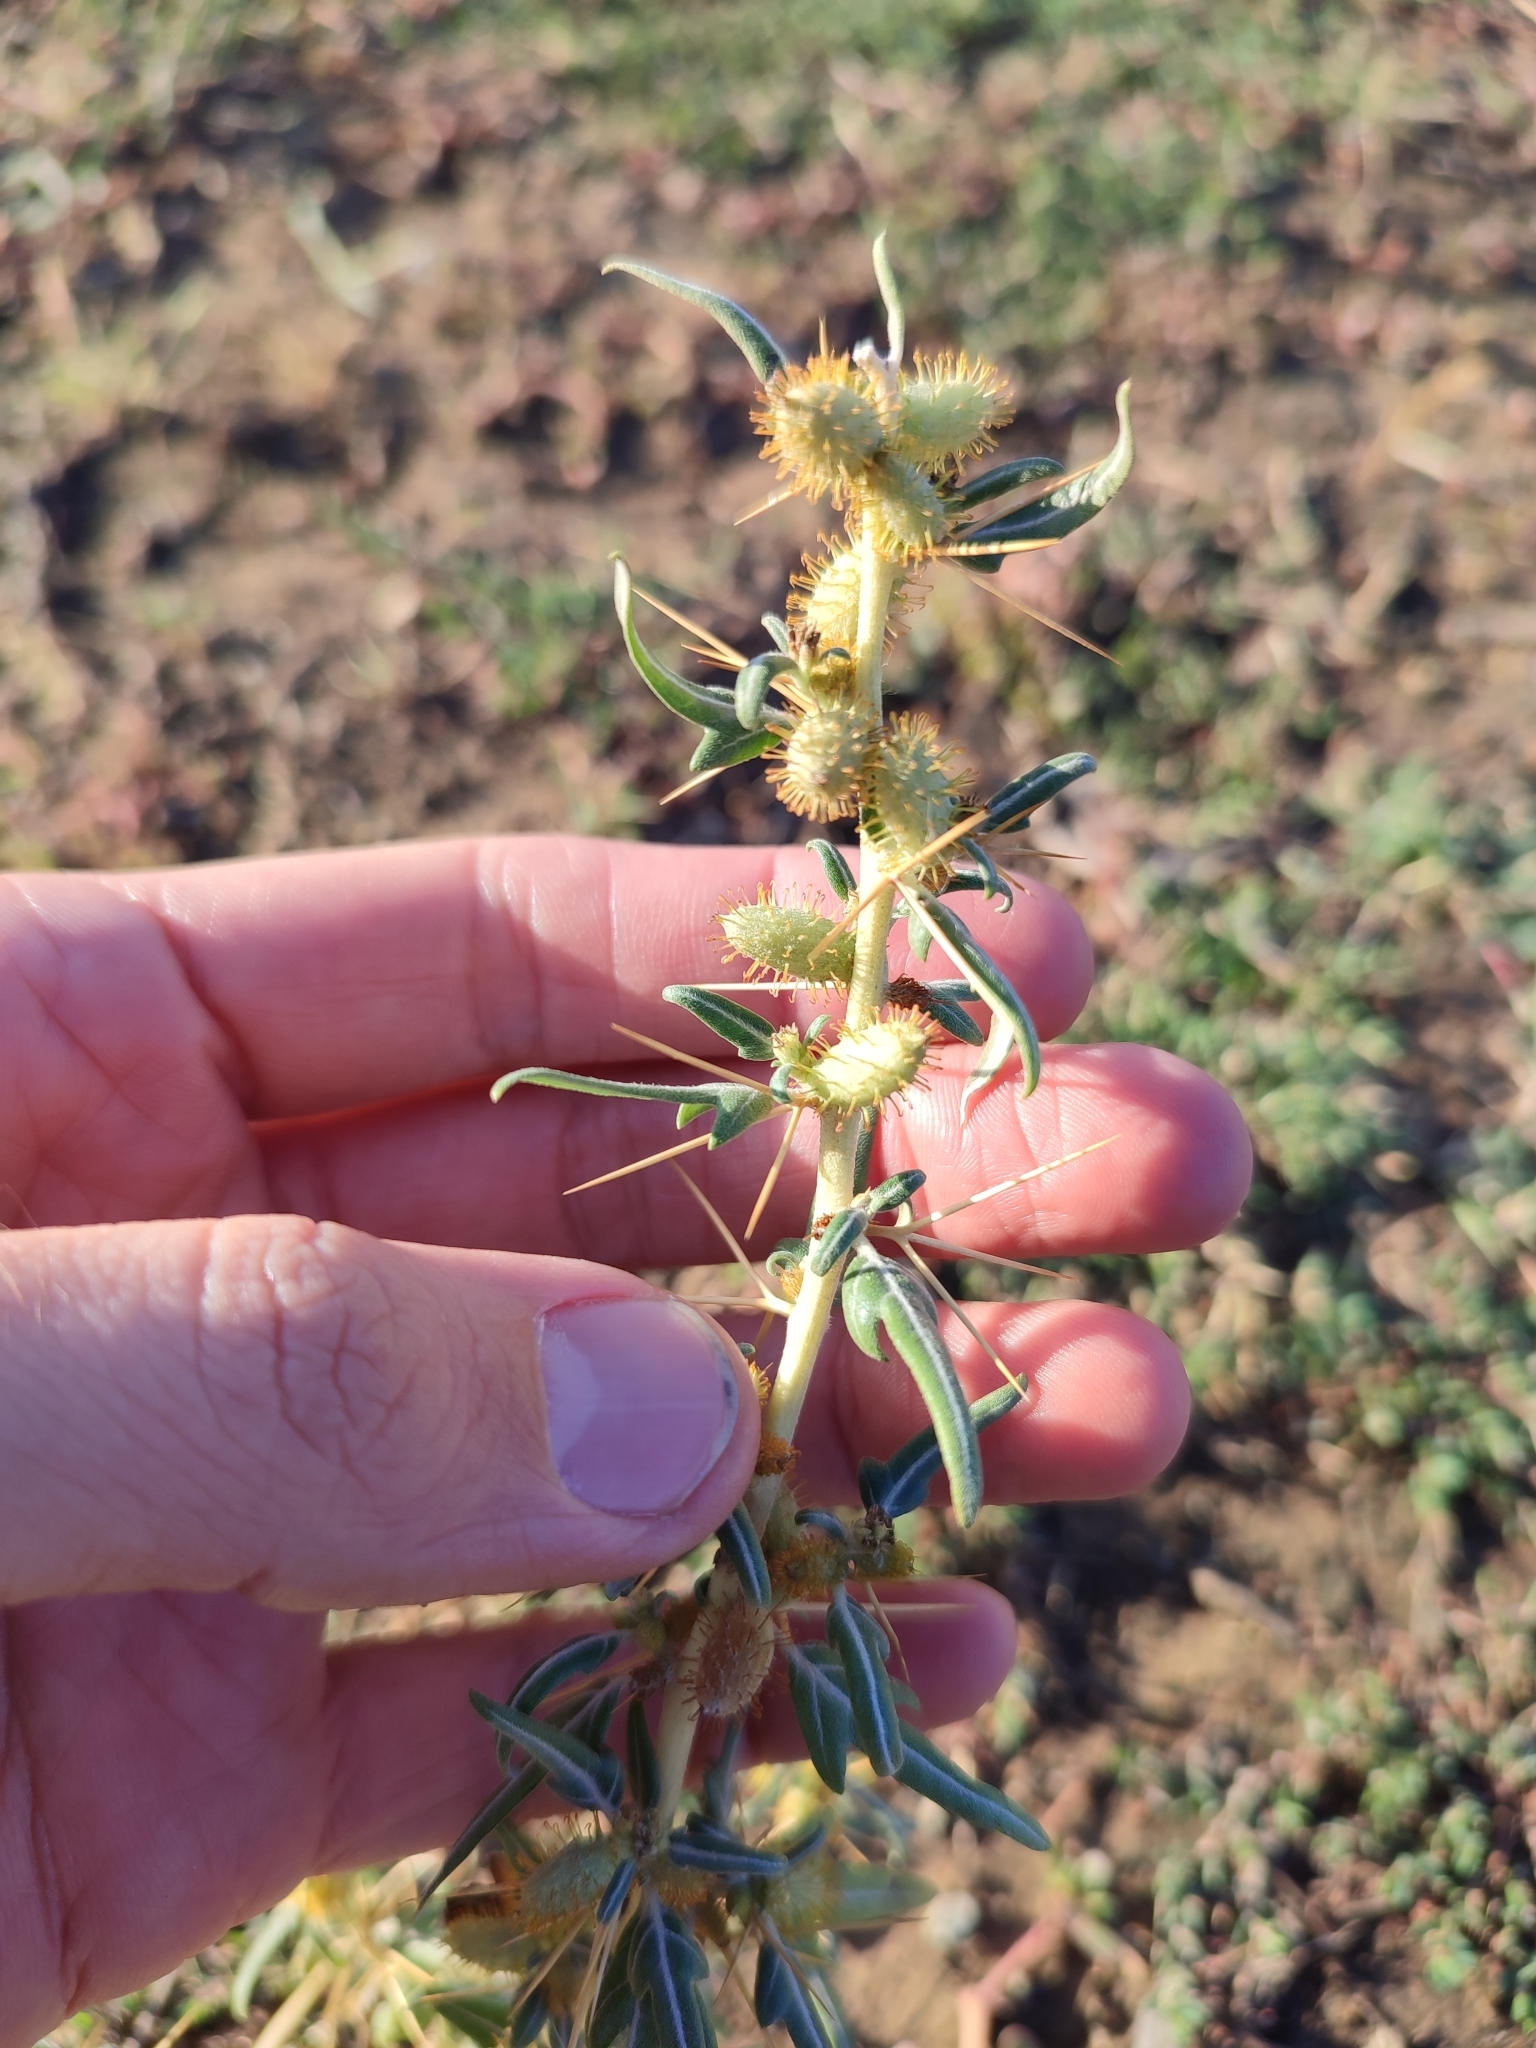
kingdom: Plantae
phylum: Tracheophyta
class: Magnoliopsida
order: Asterales
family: Asteraceae
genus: Xanthium
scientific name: Xanthium spinosum
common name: Spiny cocklebur
